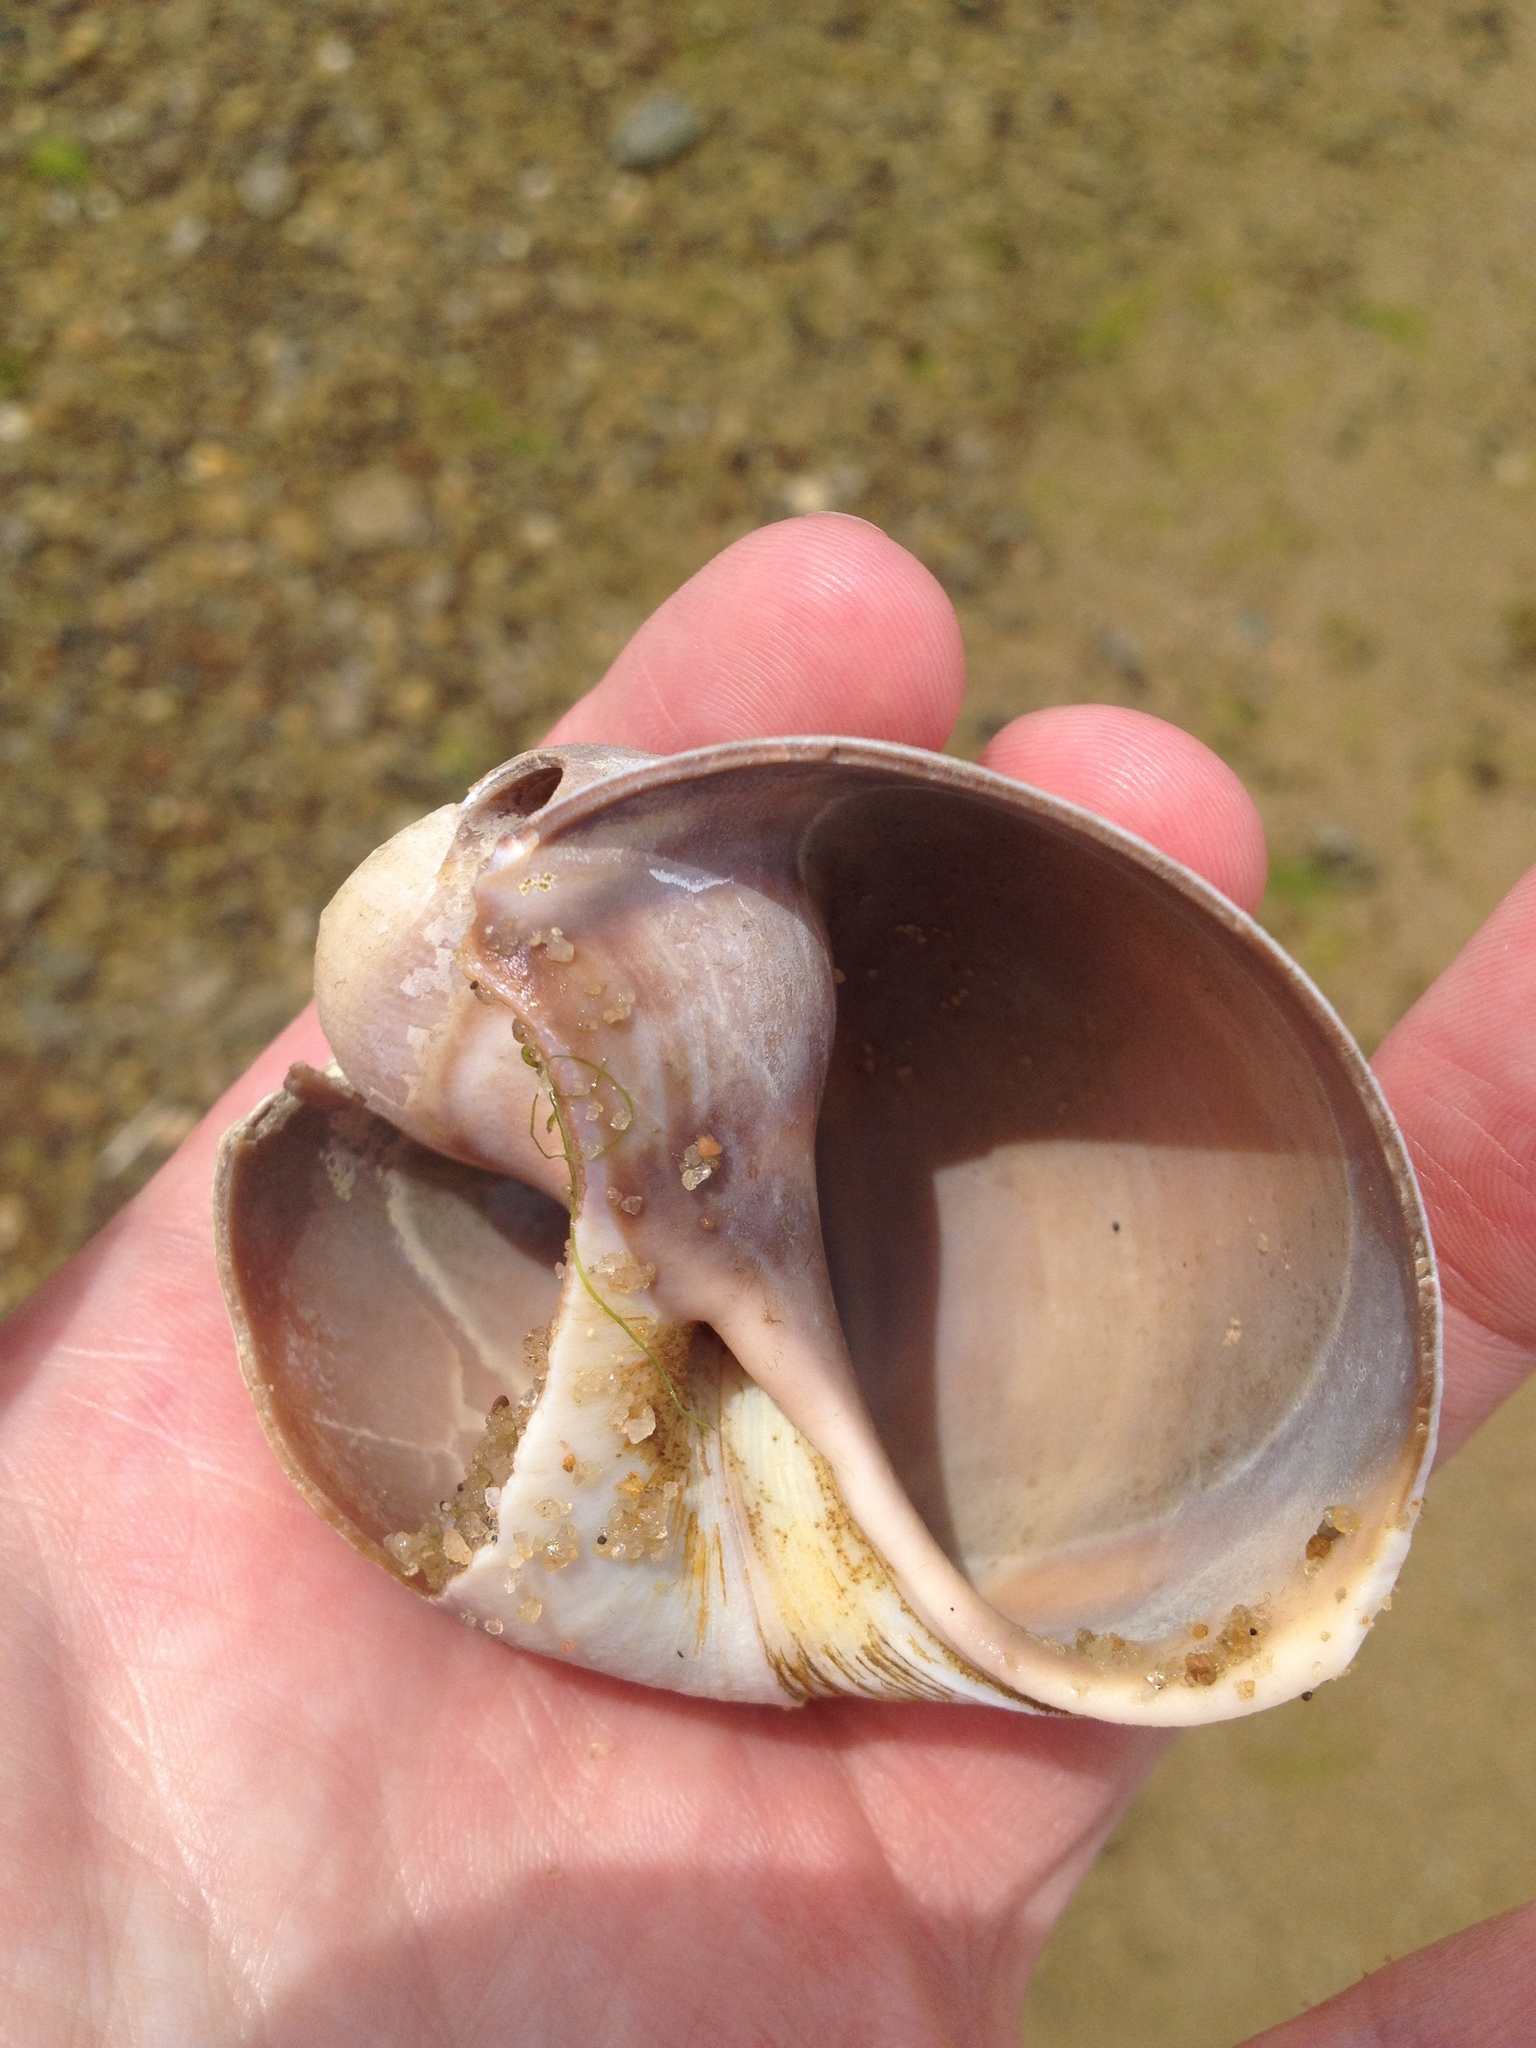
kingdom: Animalia
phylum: Mollusca
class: Gastropoda
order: Littorinimorpha
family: Naticidae
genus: Euspira
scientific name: Euspira heros
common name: Common northern moonsnail
